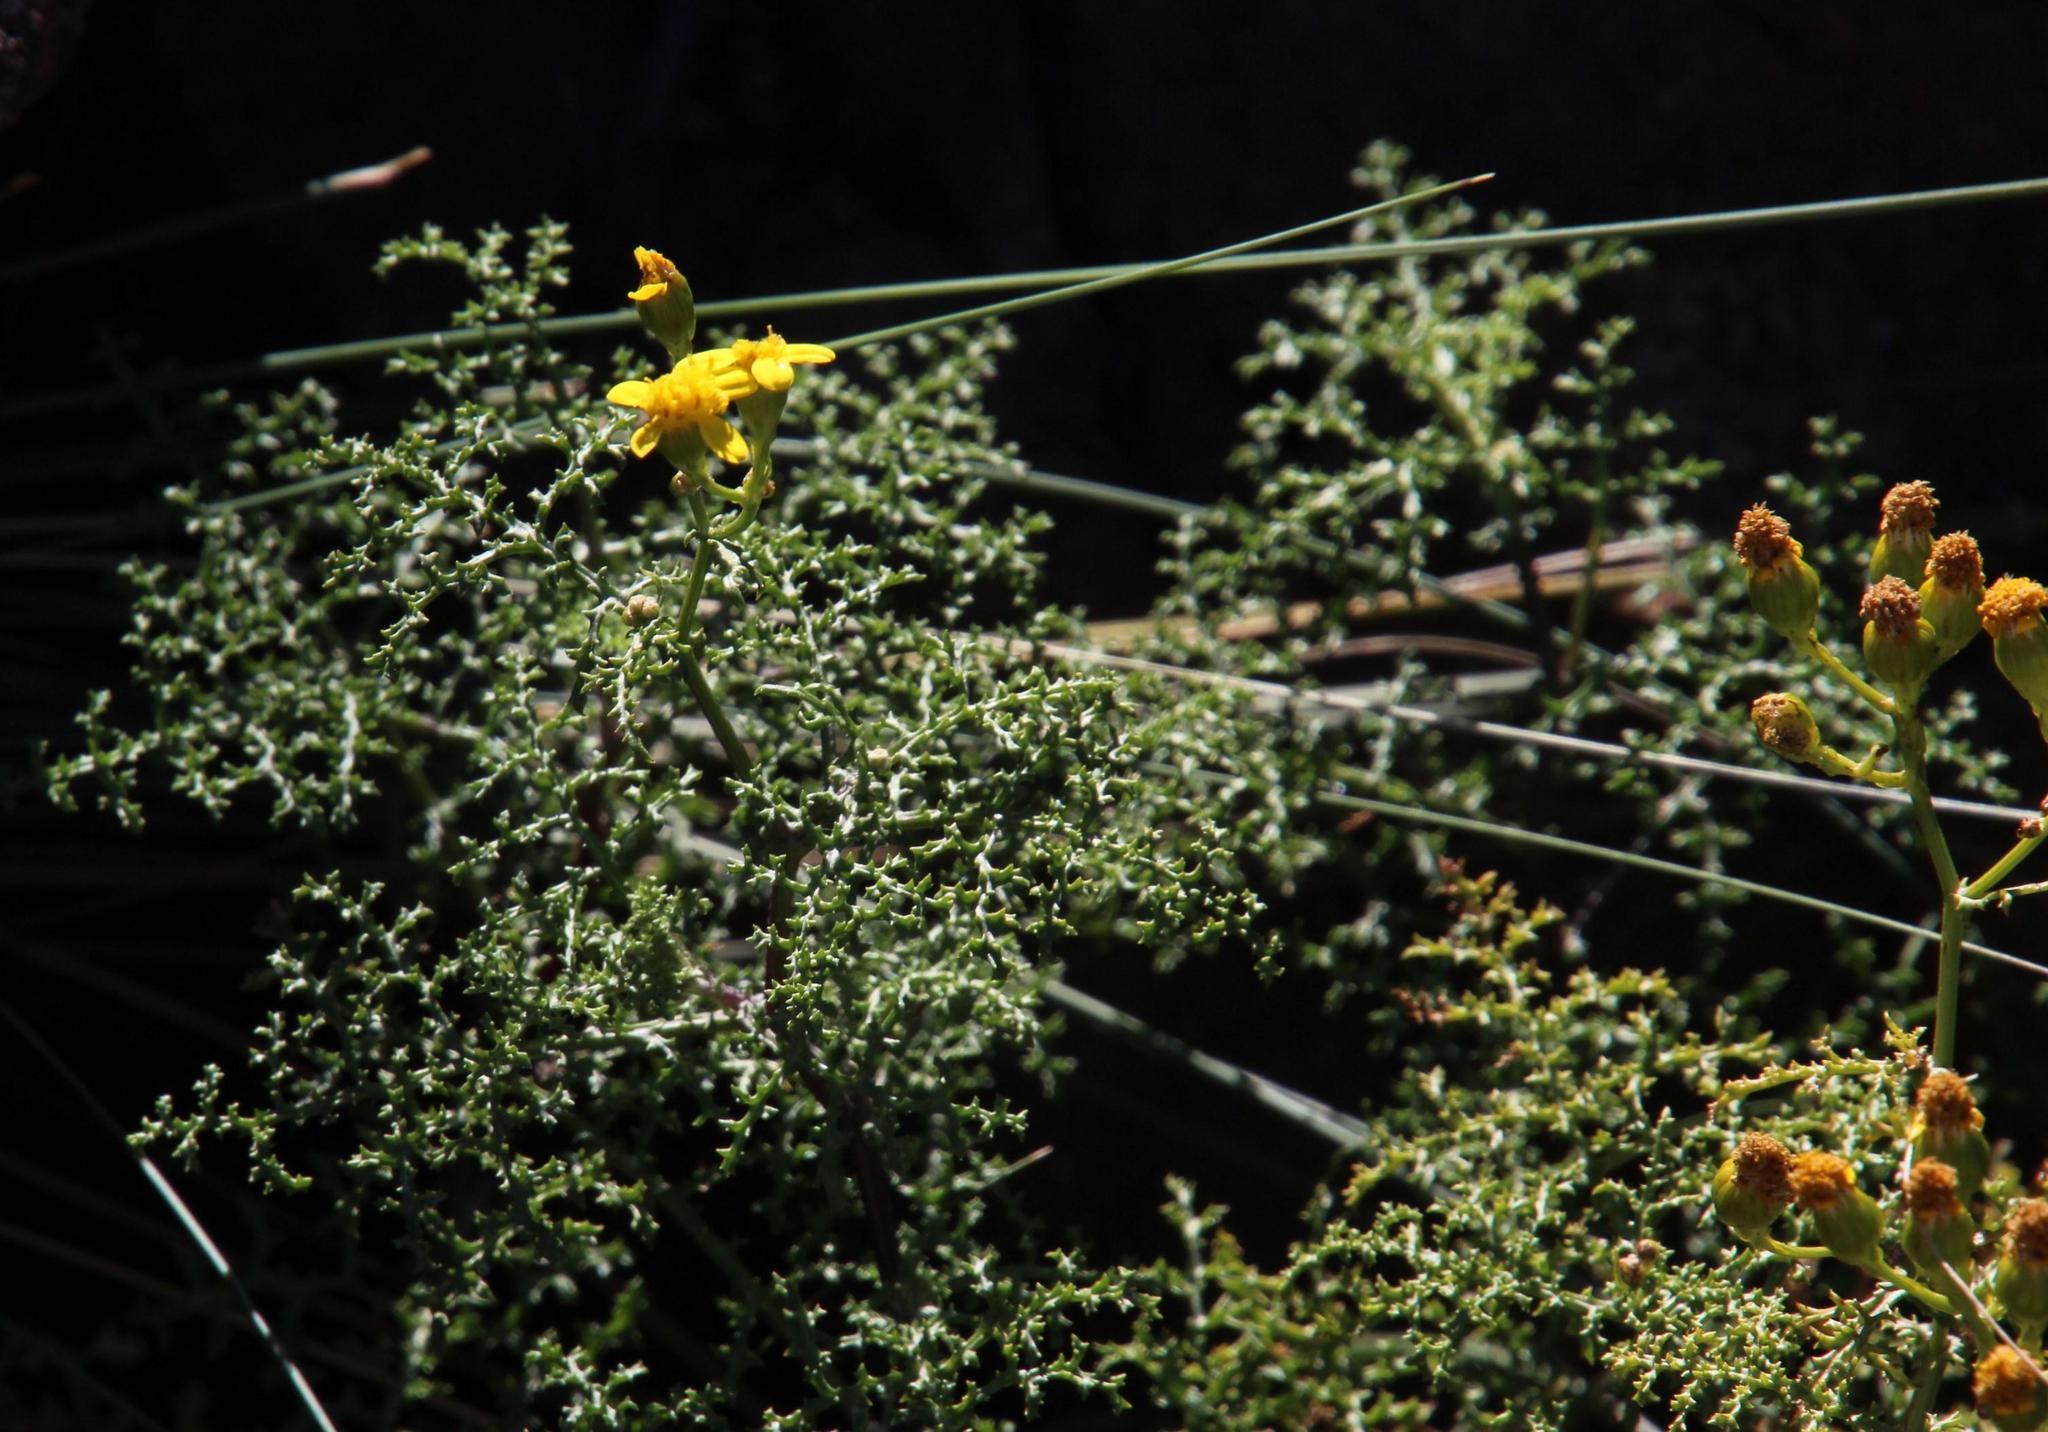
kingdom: Plantae
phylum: Tracheophyta
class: Magnoliopsida
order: Asterales
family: Asteraceae
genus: Senecio
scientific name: Senecio erysimoides
